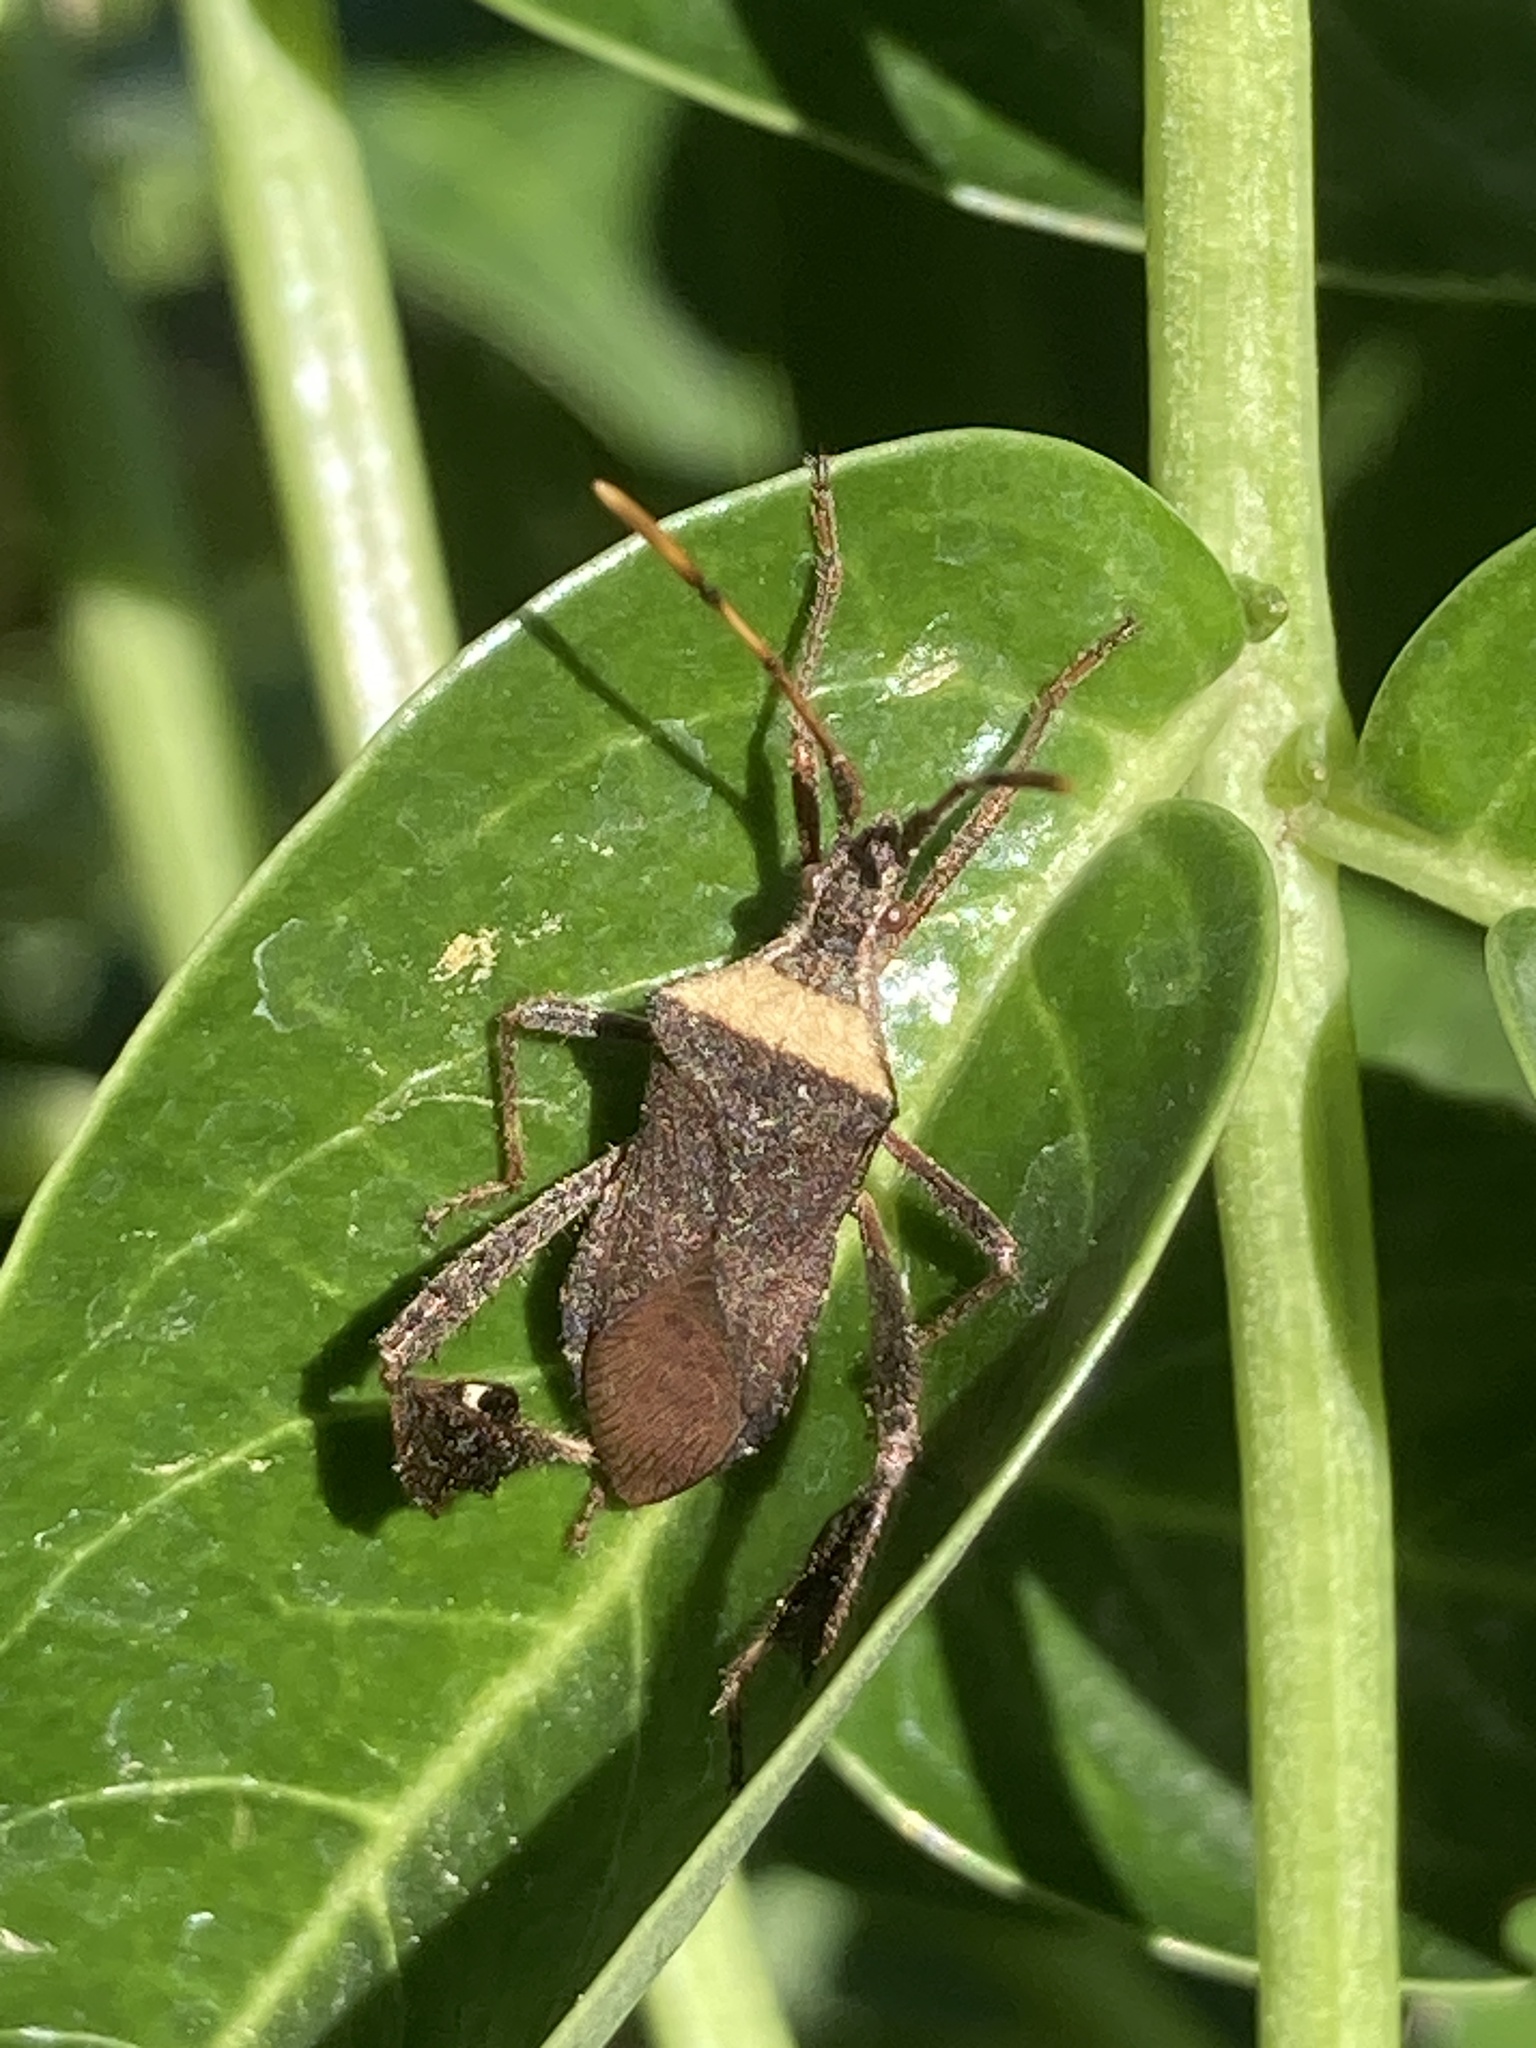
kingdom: Animalia
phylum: Arthropoda
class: Insecta
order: Hemiptera
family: Coreidae
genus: Leptoglossus
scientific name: Leptoglossus concaviusculus
